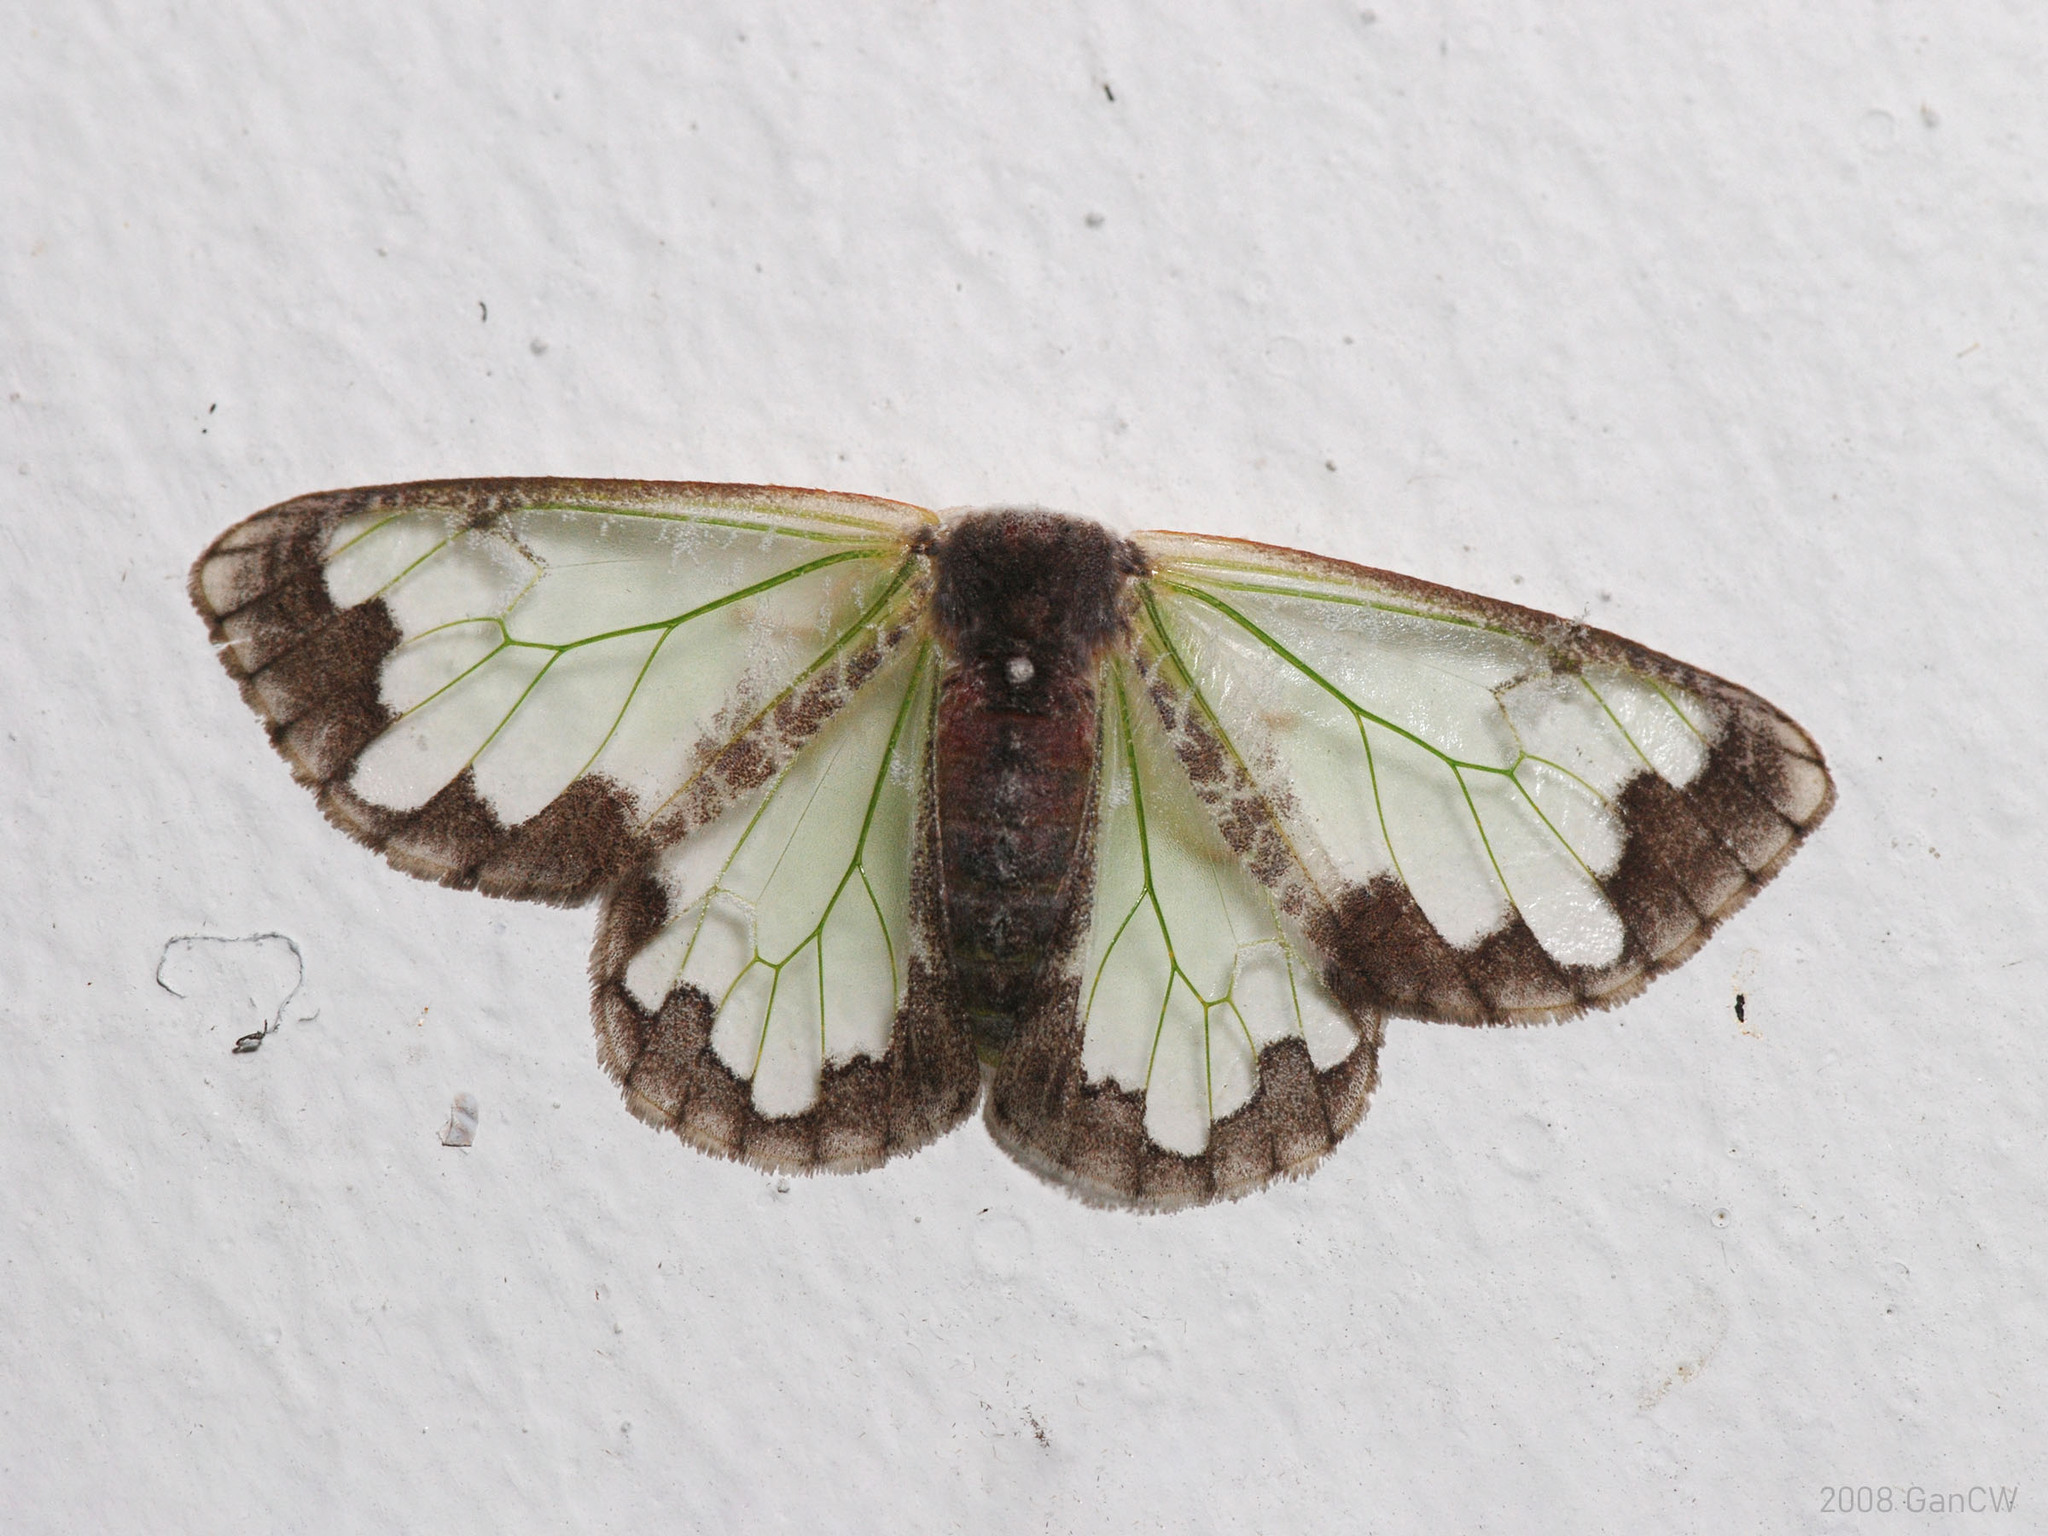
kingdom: Animalia
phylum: Arthropoda
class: Insecta
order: Lepidoptera
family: Erebidae
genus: Carriola
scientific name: Carriola thyridophora
